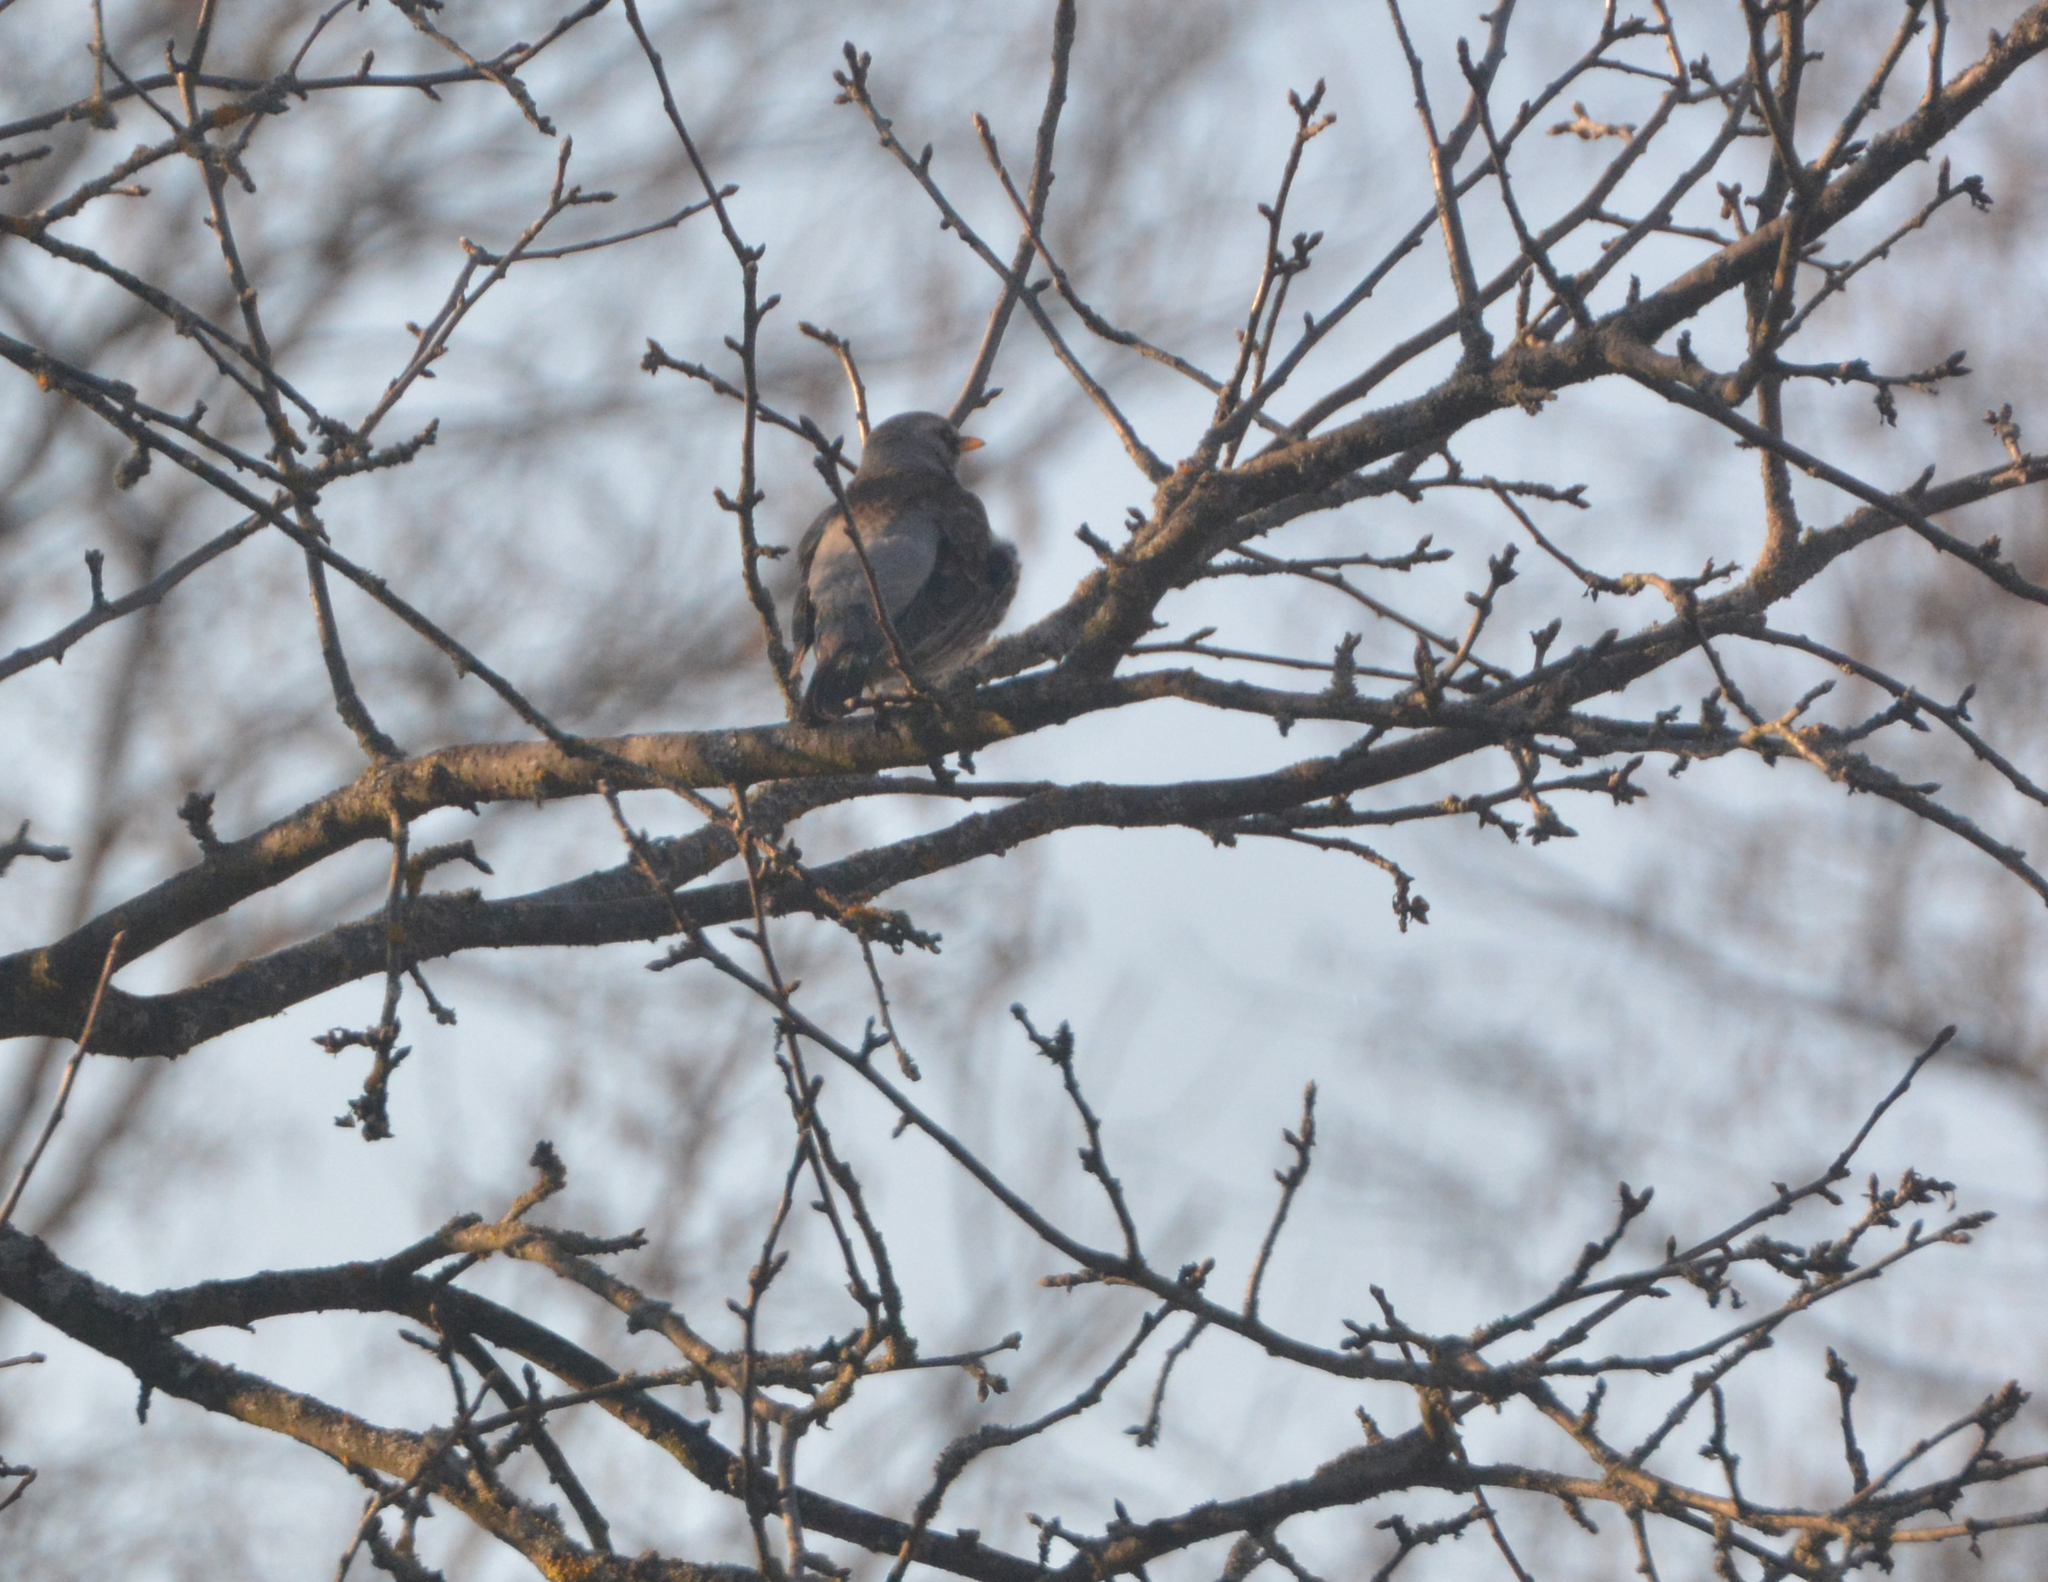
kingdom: Animalia
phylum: Chordata
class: Aves
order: Passeriformes
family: Turdidae
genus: Turdus
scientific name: Turdus pilaris
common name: Fieldfare
